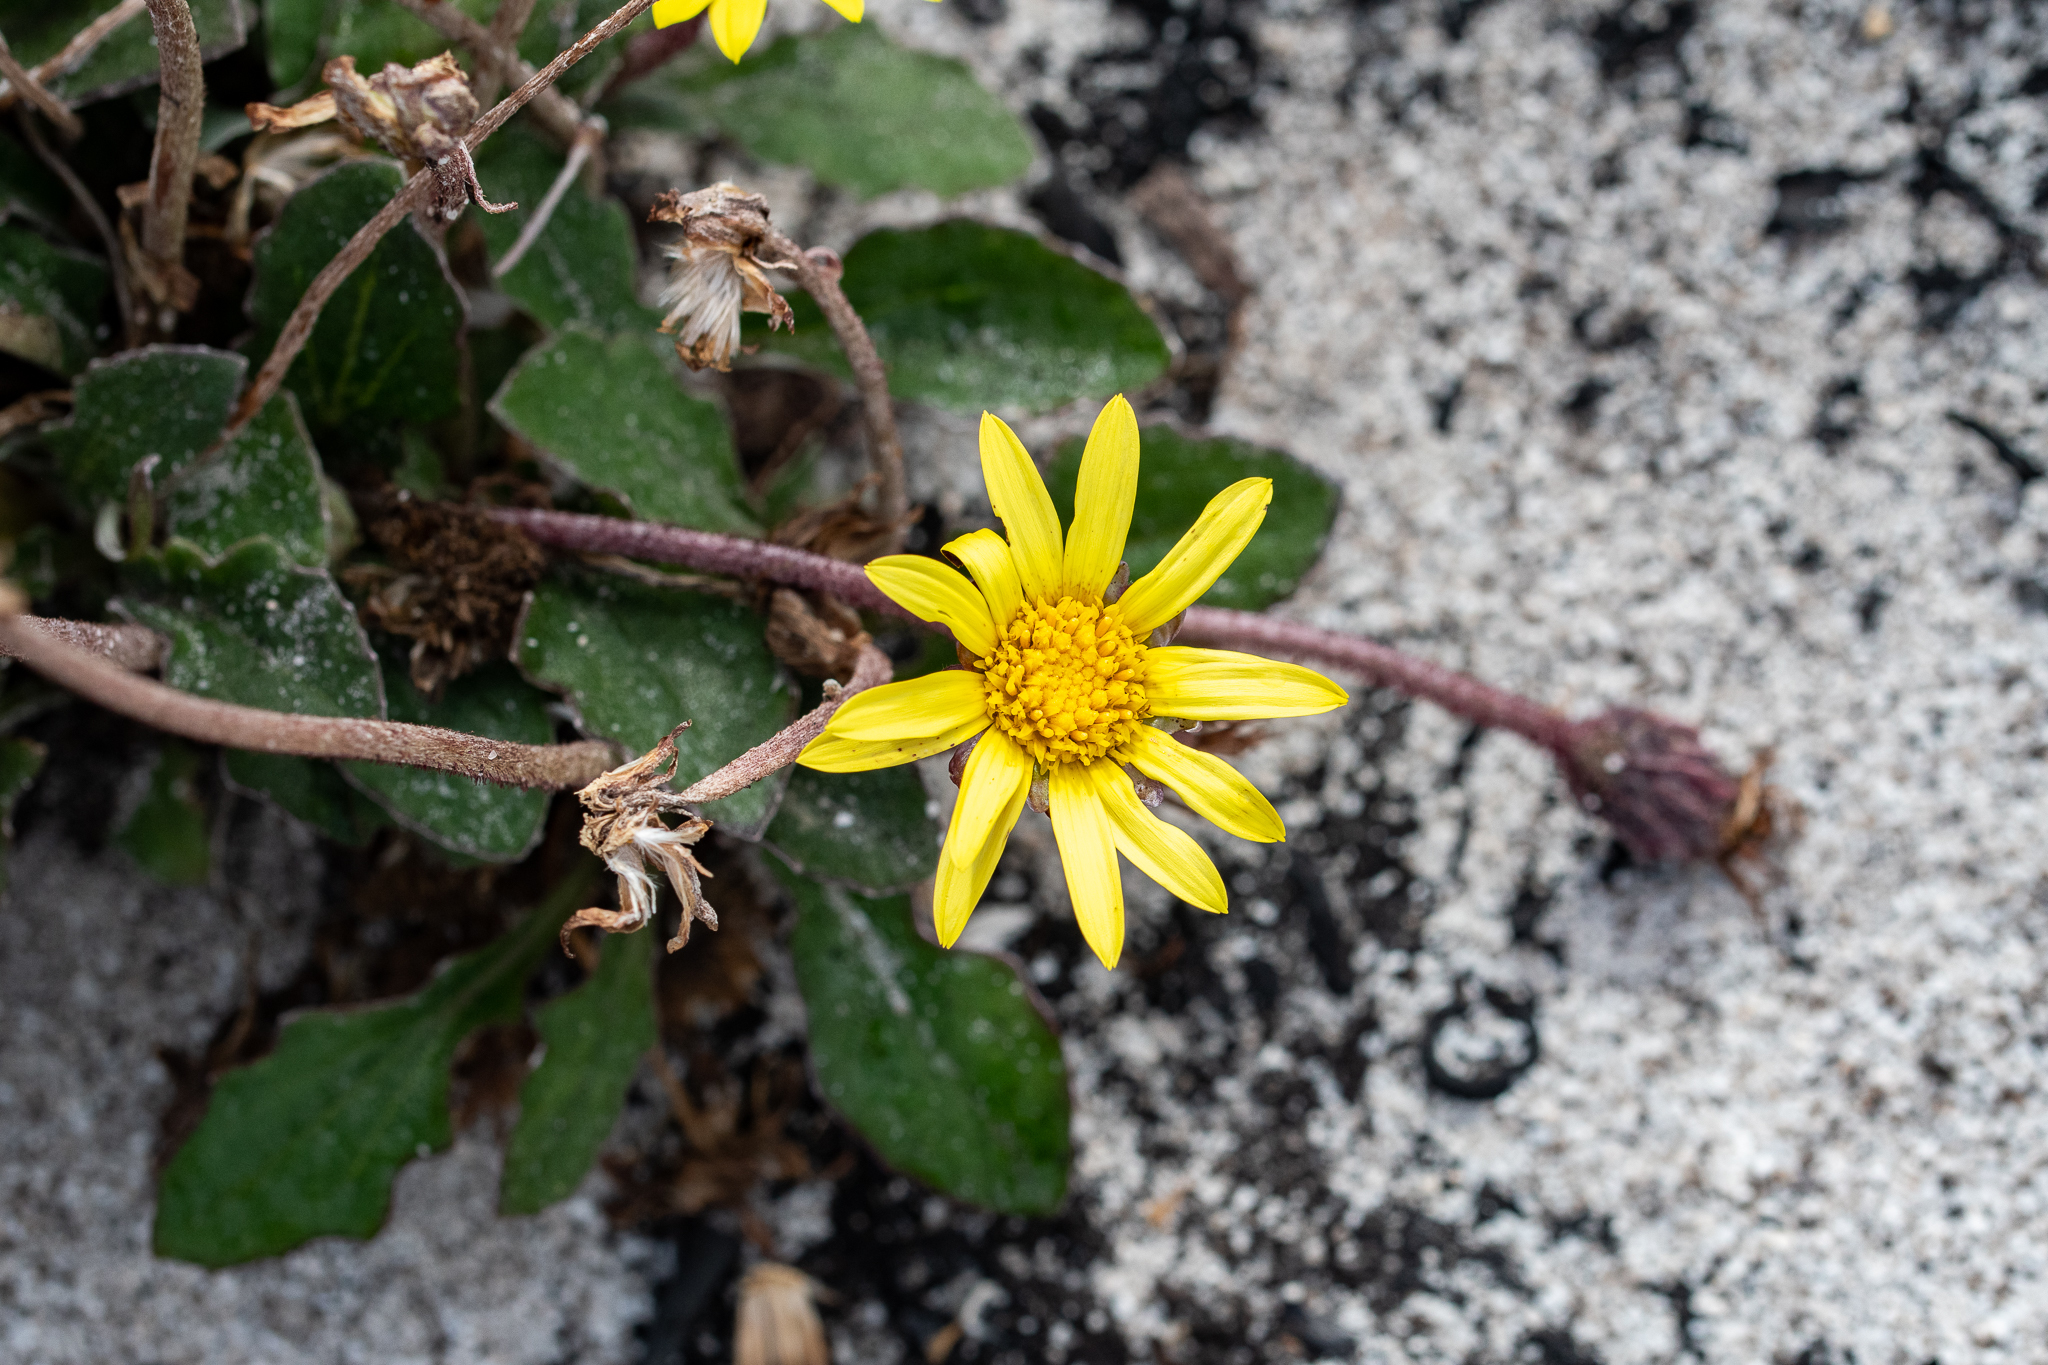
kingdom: Plantae
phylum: Tracheophyta
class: Magnoliopsida
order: Asterales
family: Asteraceae
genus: Haplocarpha
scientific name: Haplocarpha lanata
